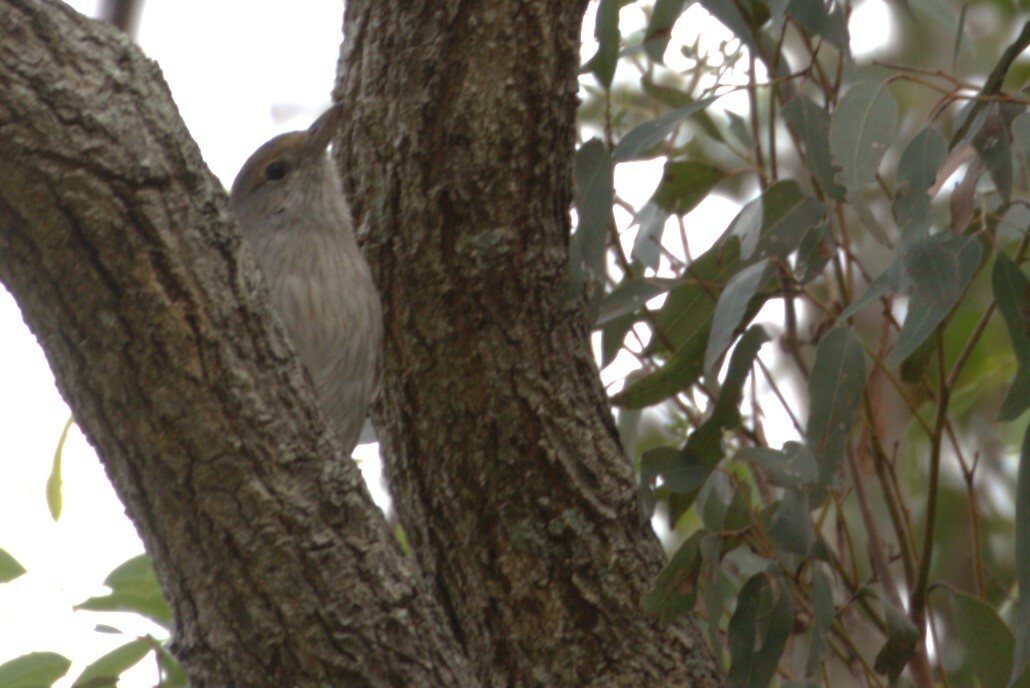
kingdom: Animalia
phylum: Chordata
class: Aves
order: Passeriformes
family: Pachycephalidae
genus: Colluricincla
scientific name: Colluricincla harmonica
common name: Grey shrikethrush
